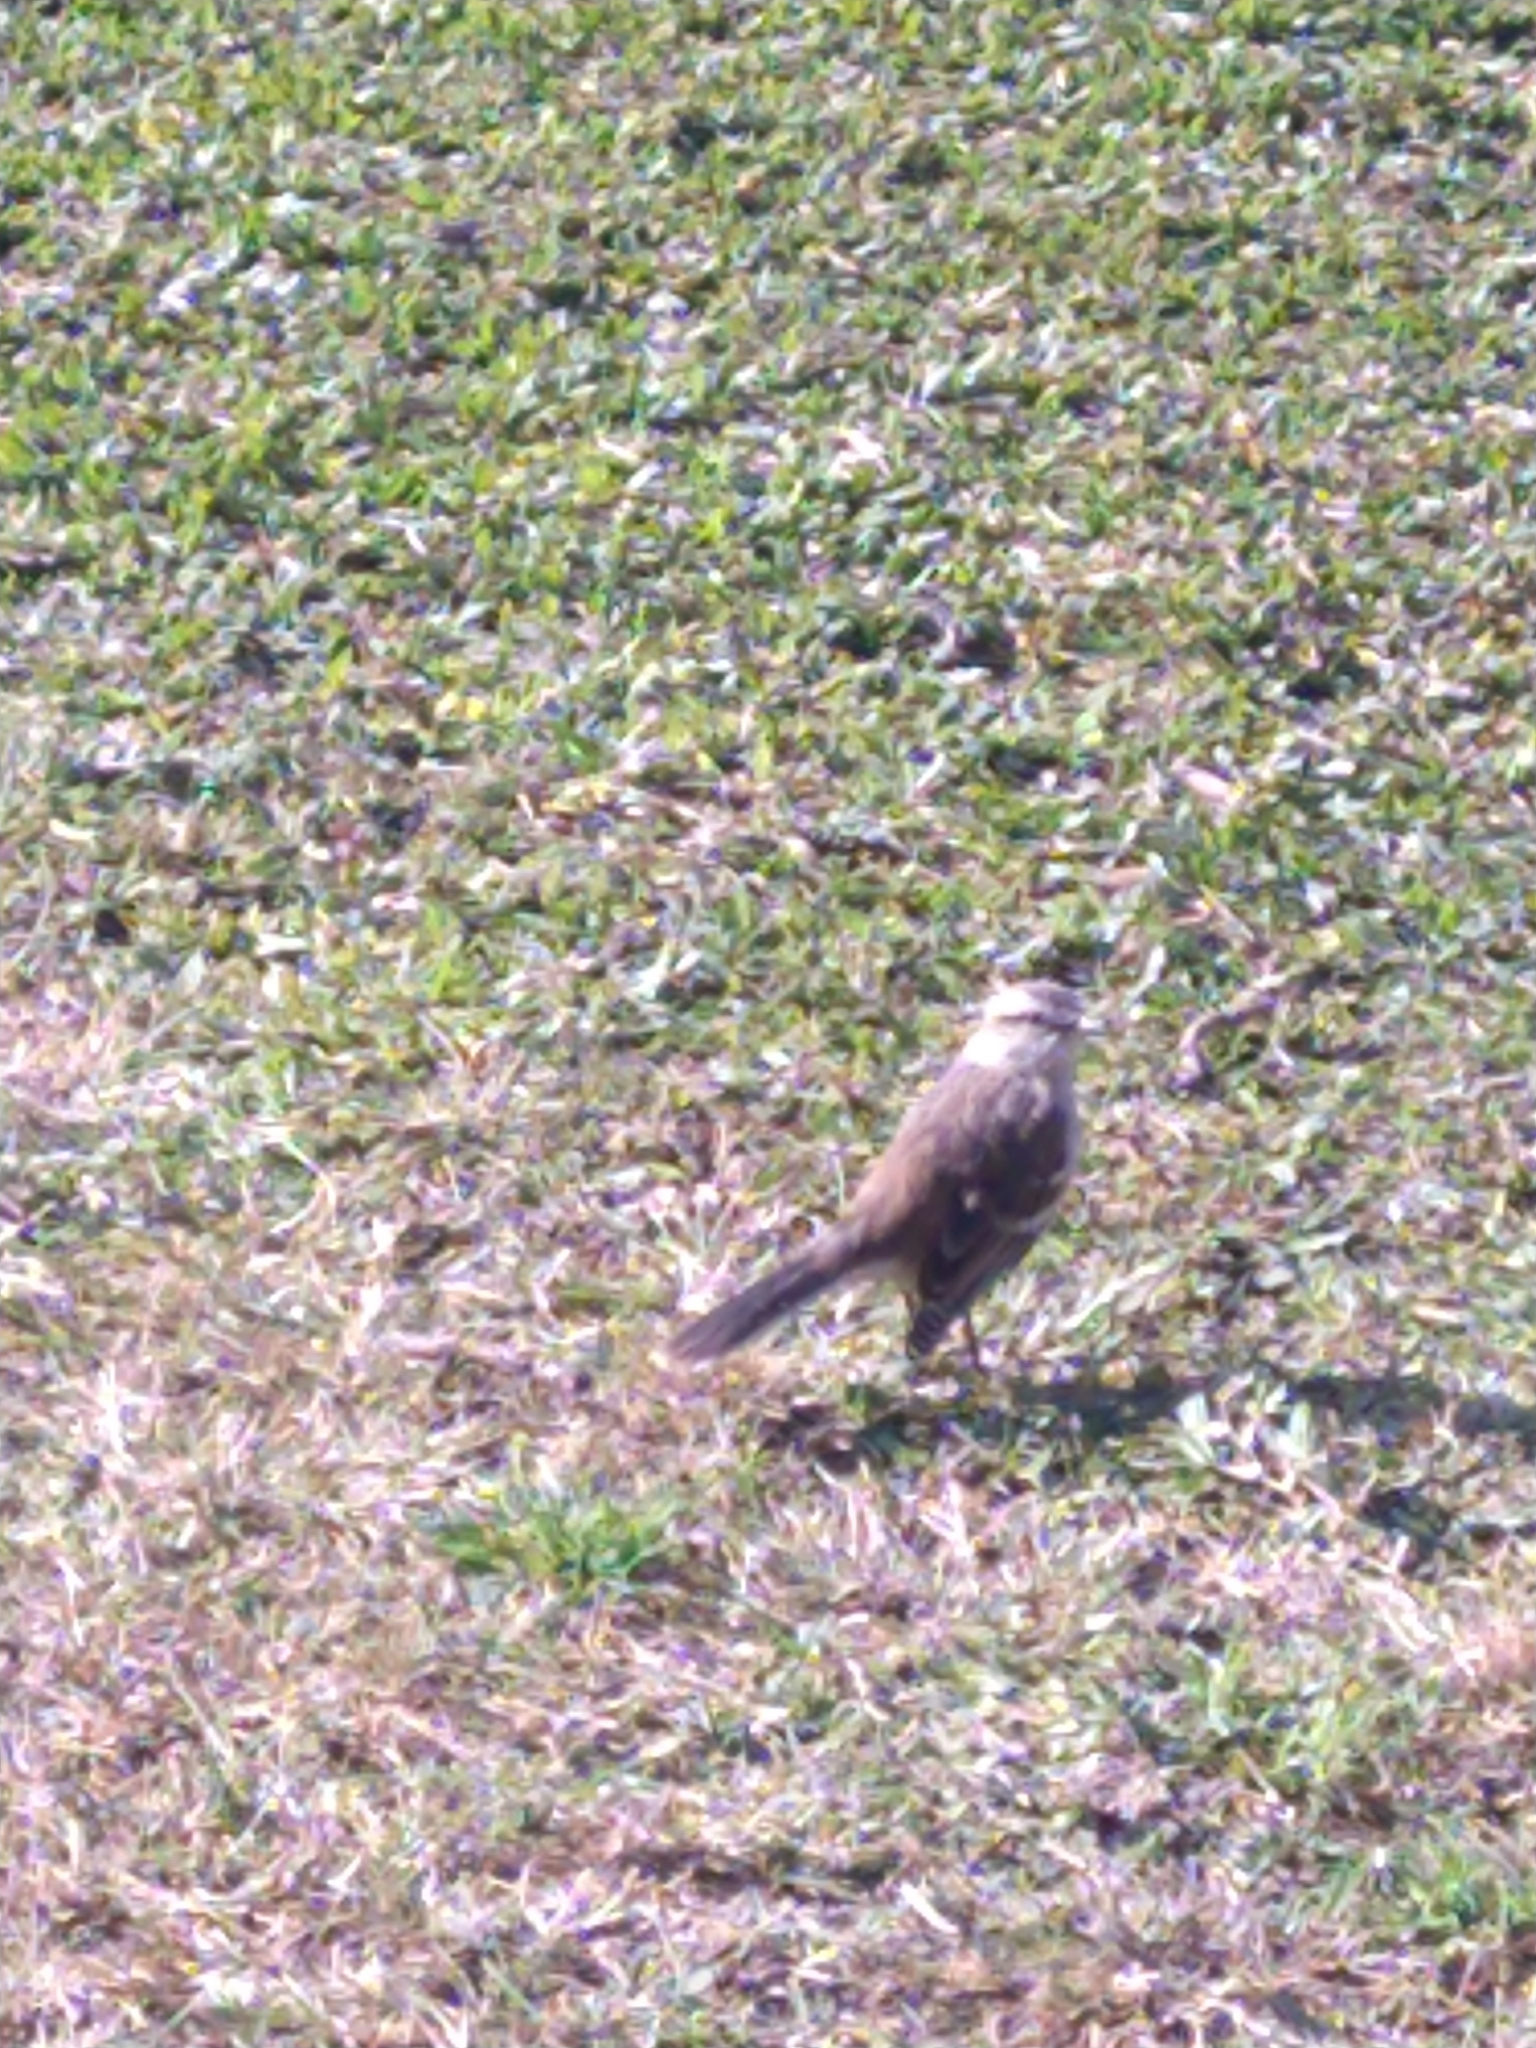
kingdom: Animalia
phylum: Chordata
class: Aves
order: Passeriformes
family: Mimidae
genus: Mimus
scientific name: Mimus saturninus
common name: Chalk-browed mockingbird
